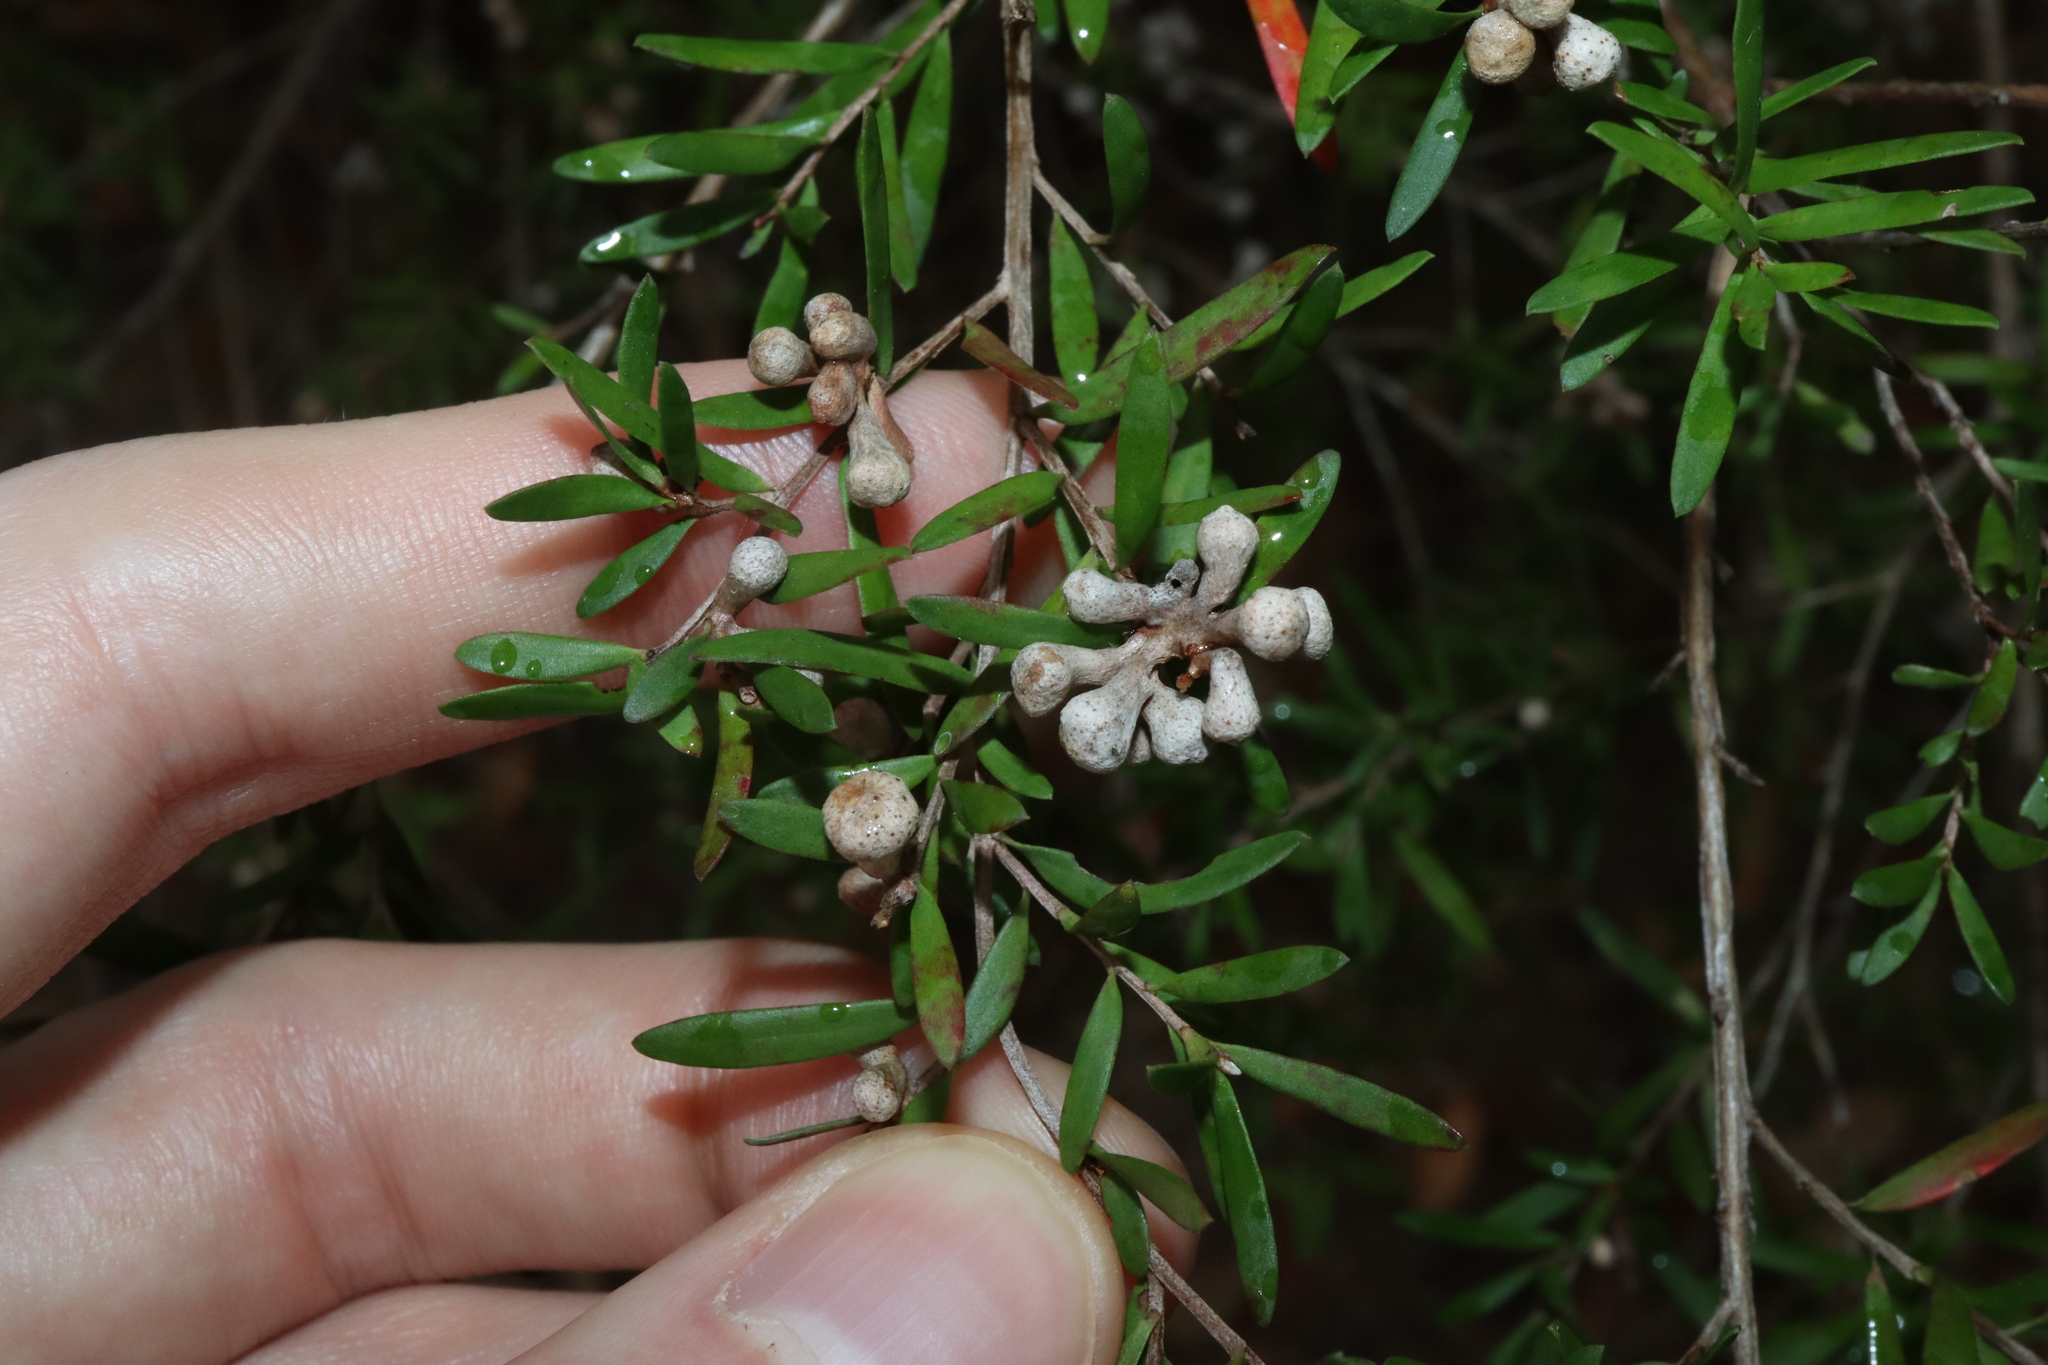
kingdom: Animalia
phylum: Arthropoda
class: Insecta
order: Hemiptera
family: Asterolecaniidae
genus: Eremococcus
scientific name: Eremococcus
